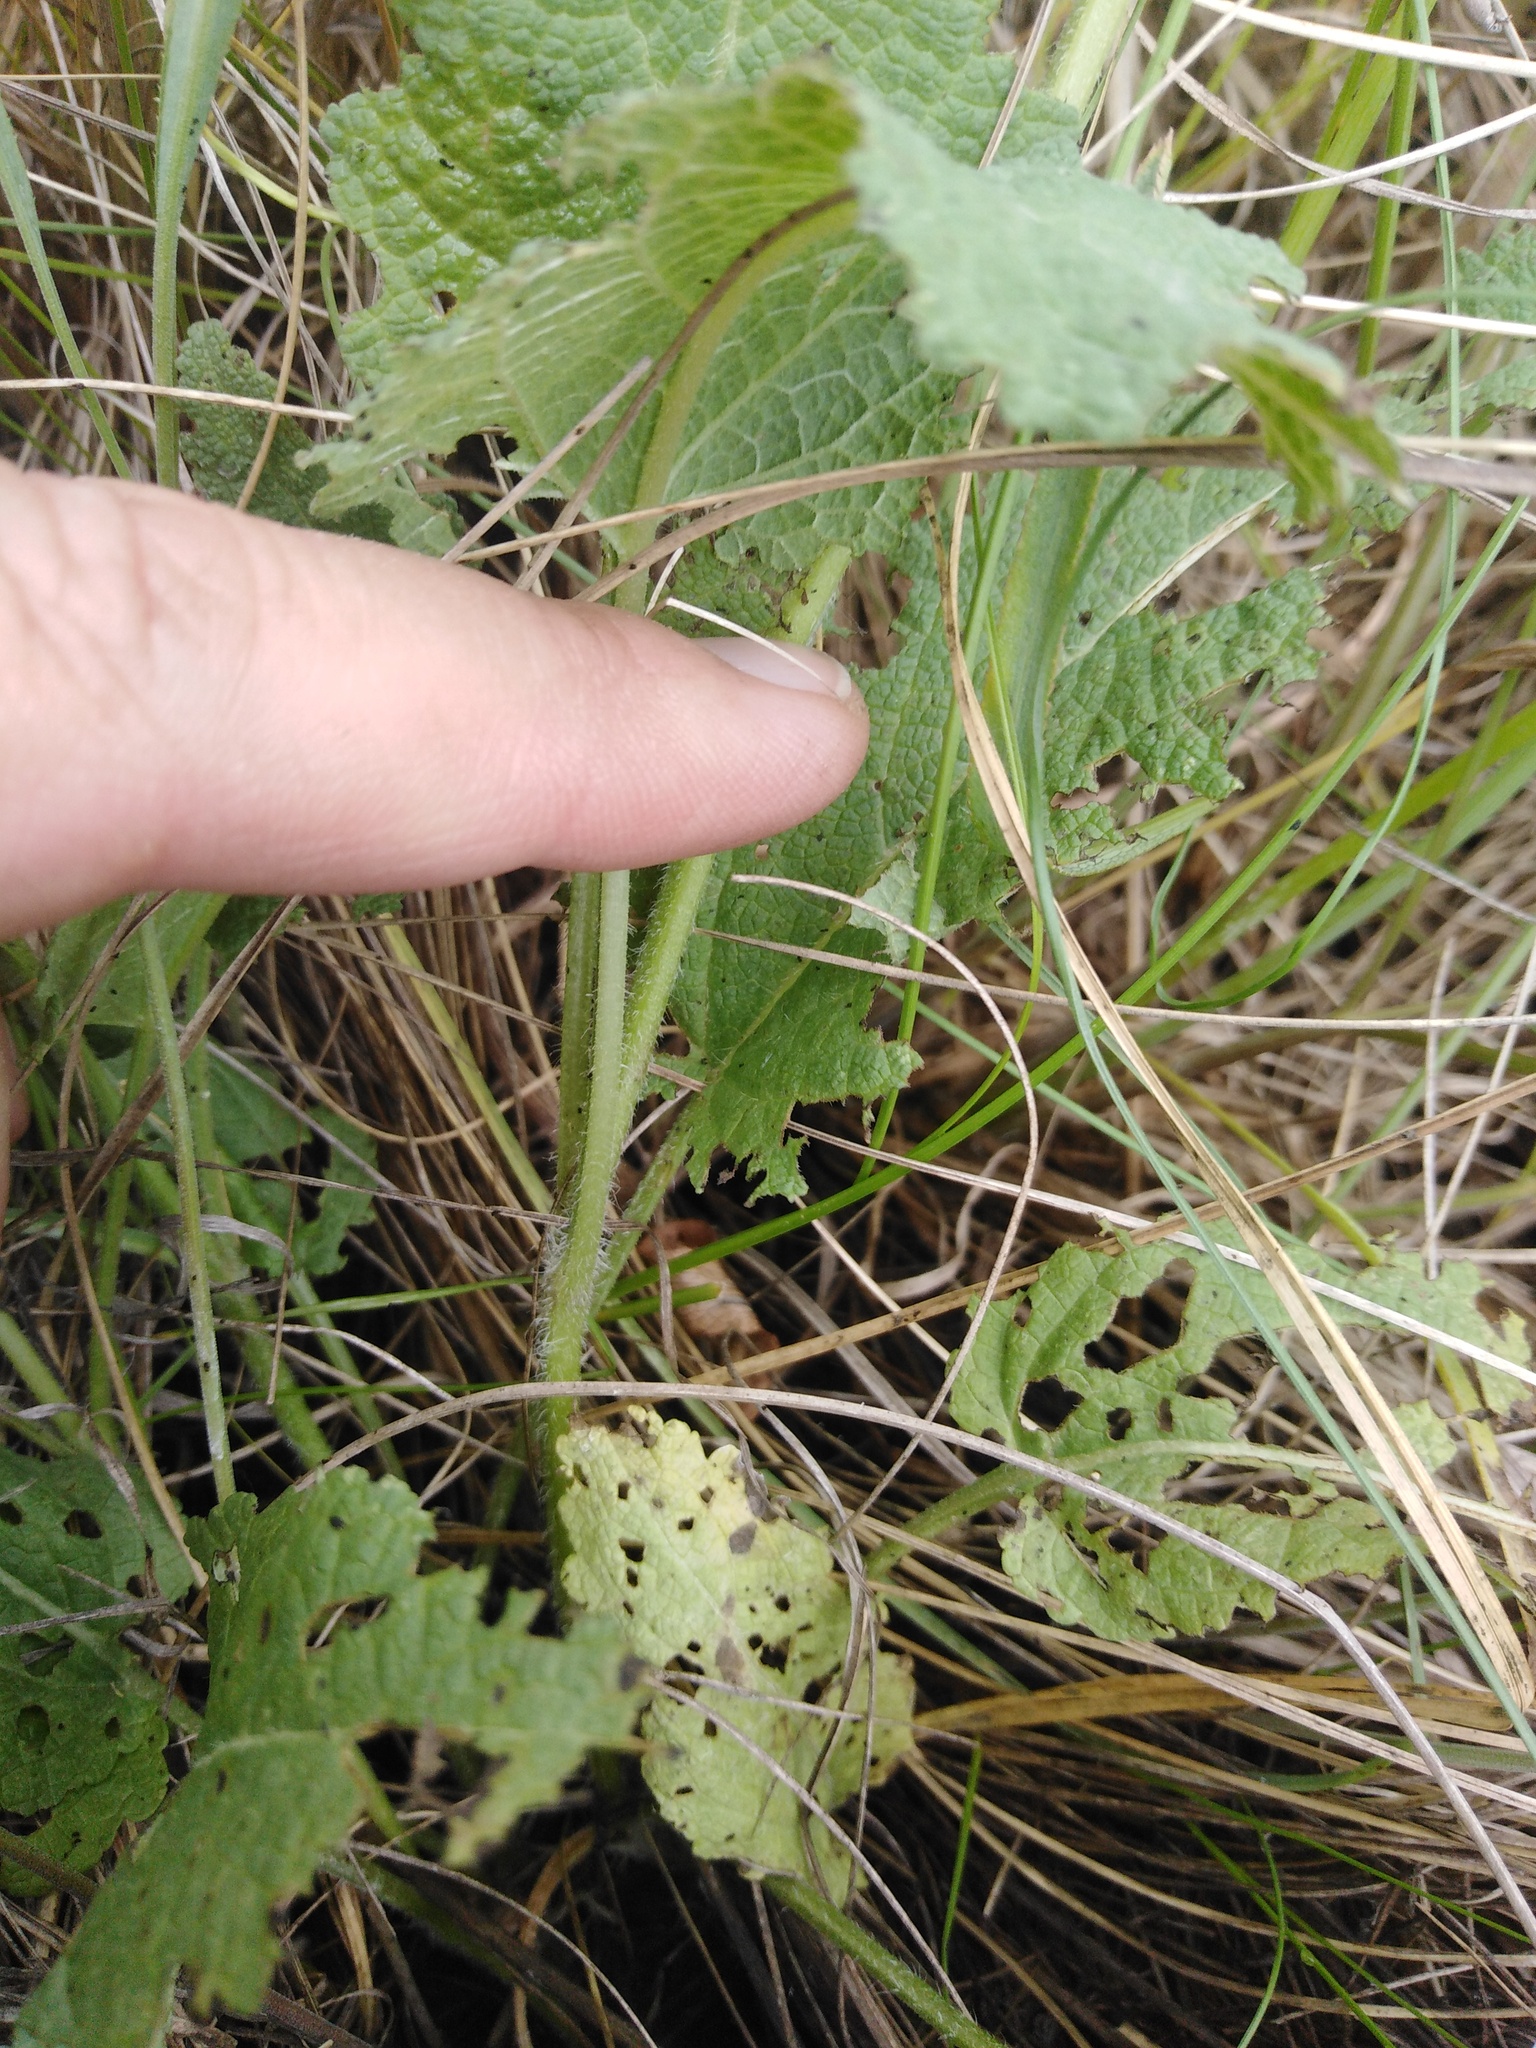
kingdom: Plantae
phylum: Tracheophyta
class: Magnoliopsida
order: Lamiales
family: Lamiaceae
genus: Salvia
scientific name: Salvia dumetorum
